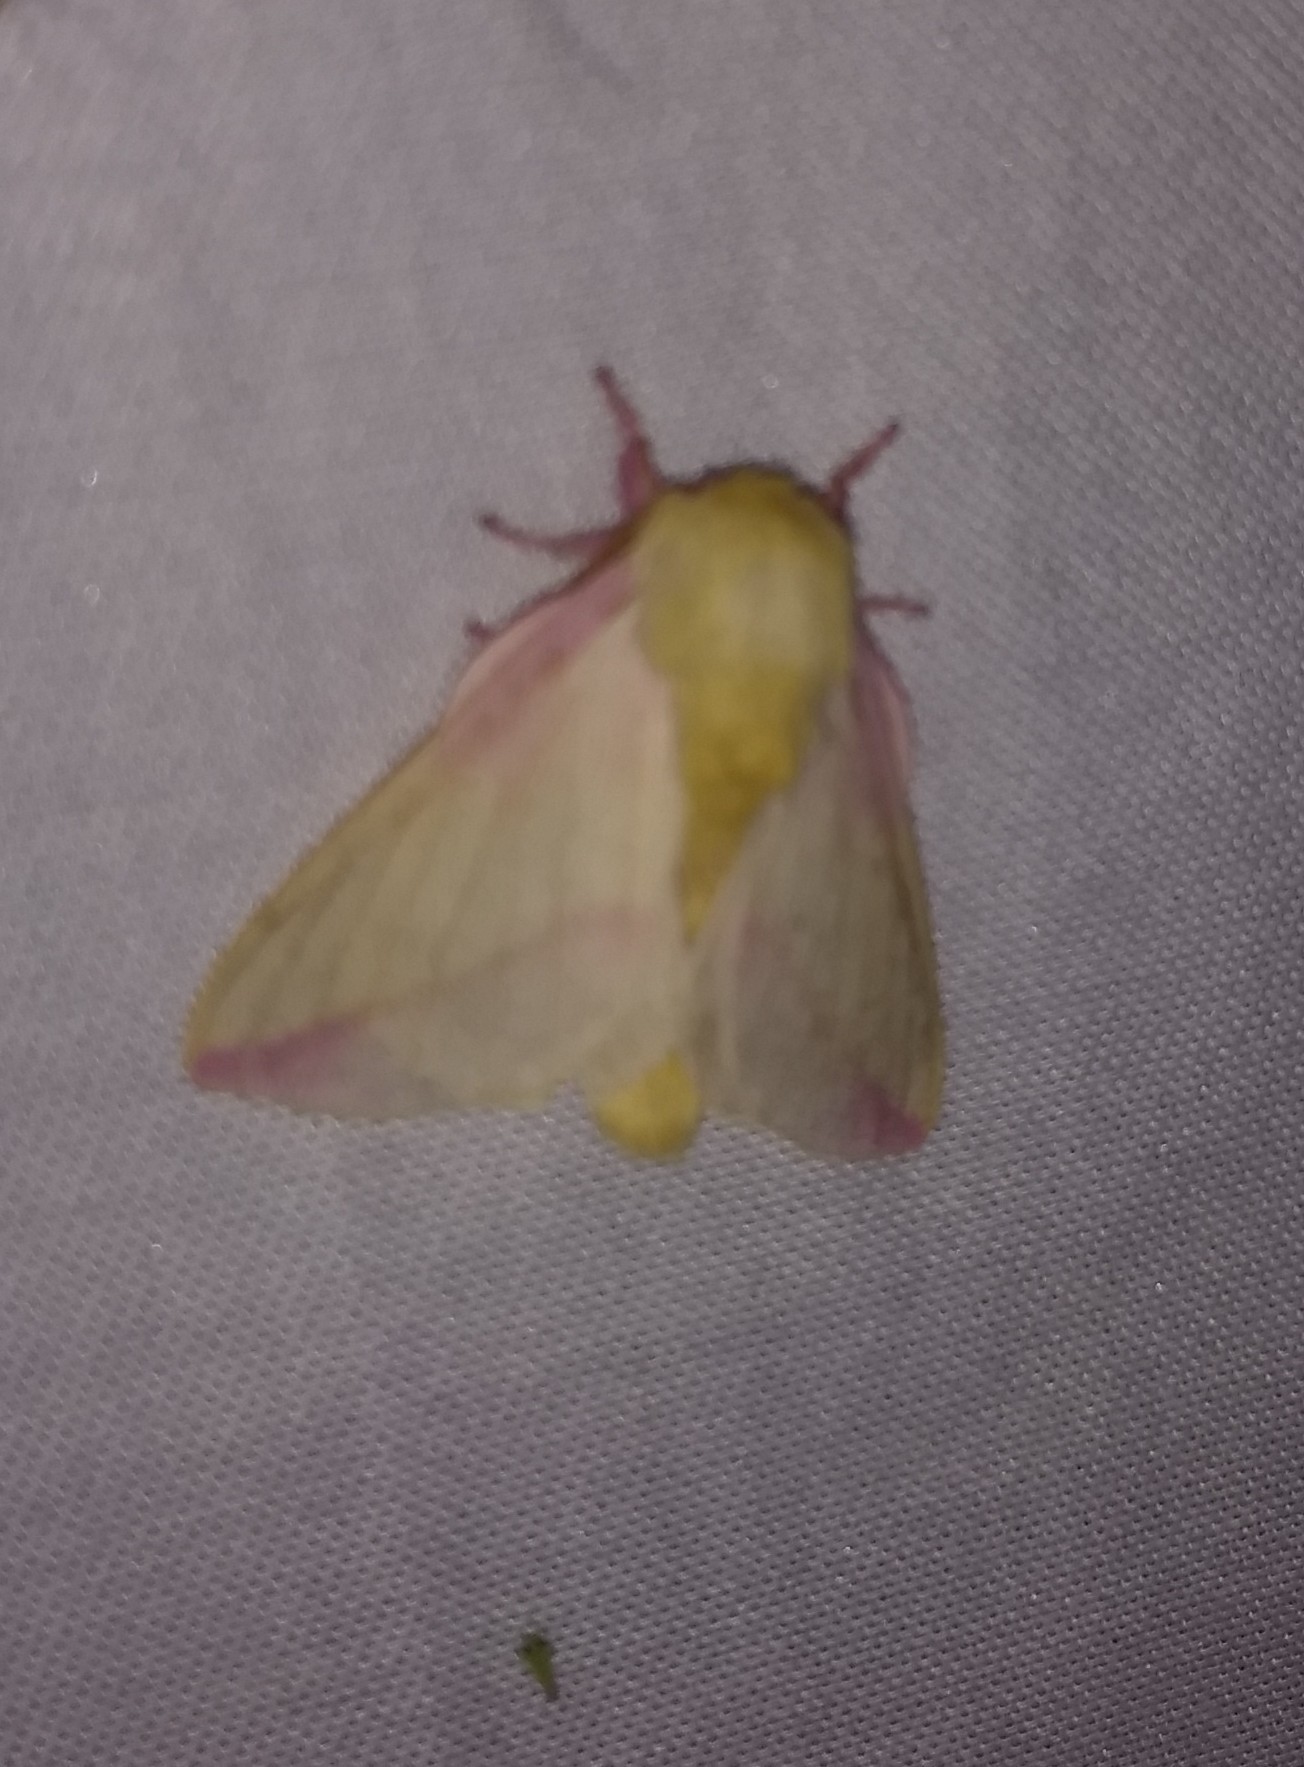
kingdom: Animalia
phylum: Arthropoda
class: Insecta
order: Lepidoptera
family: Saturniidae
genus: Dryocampa
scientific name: Dryocampa rubicunda
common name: Rosy maple moth
